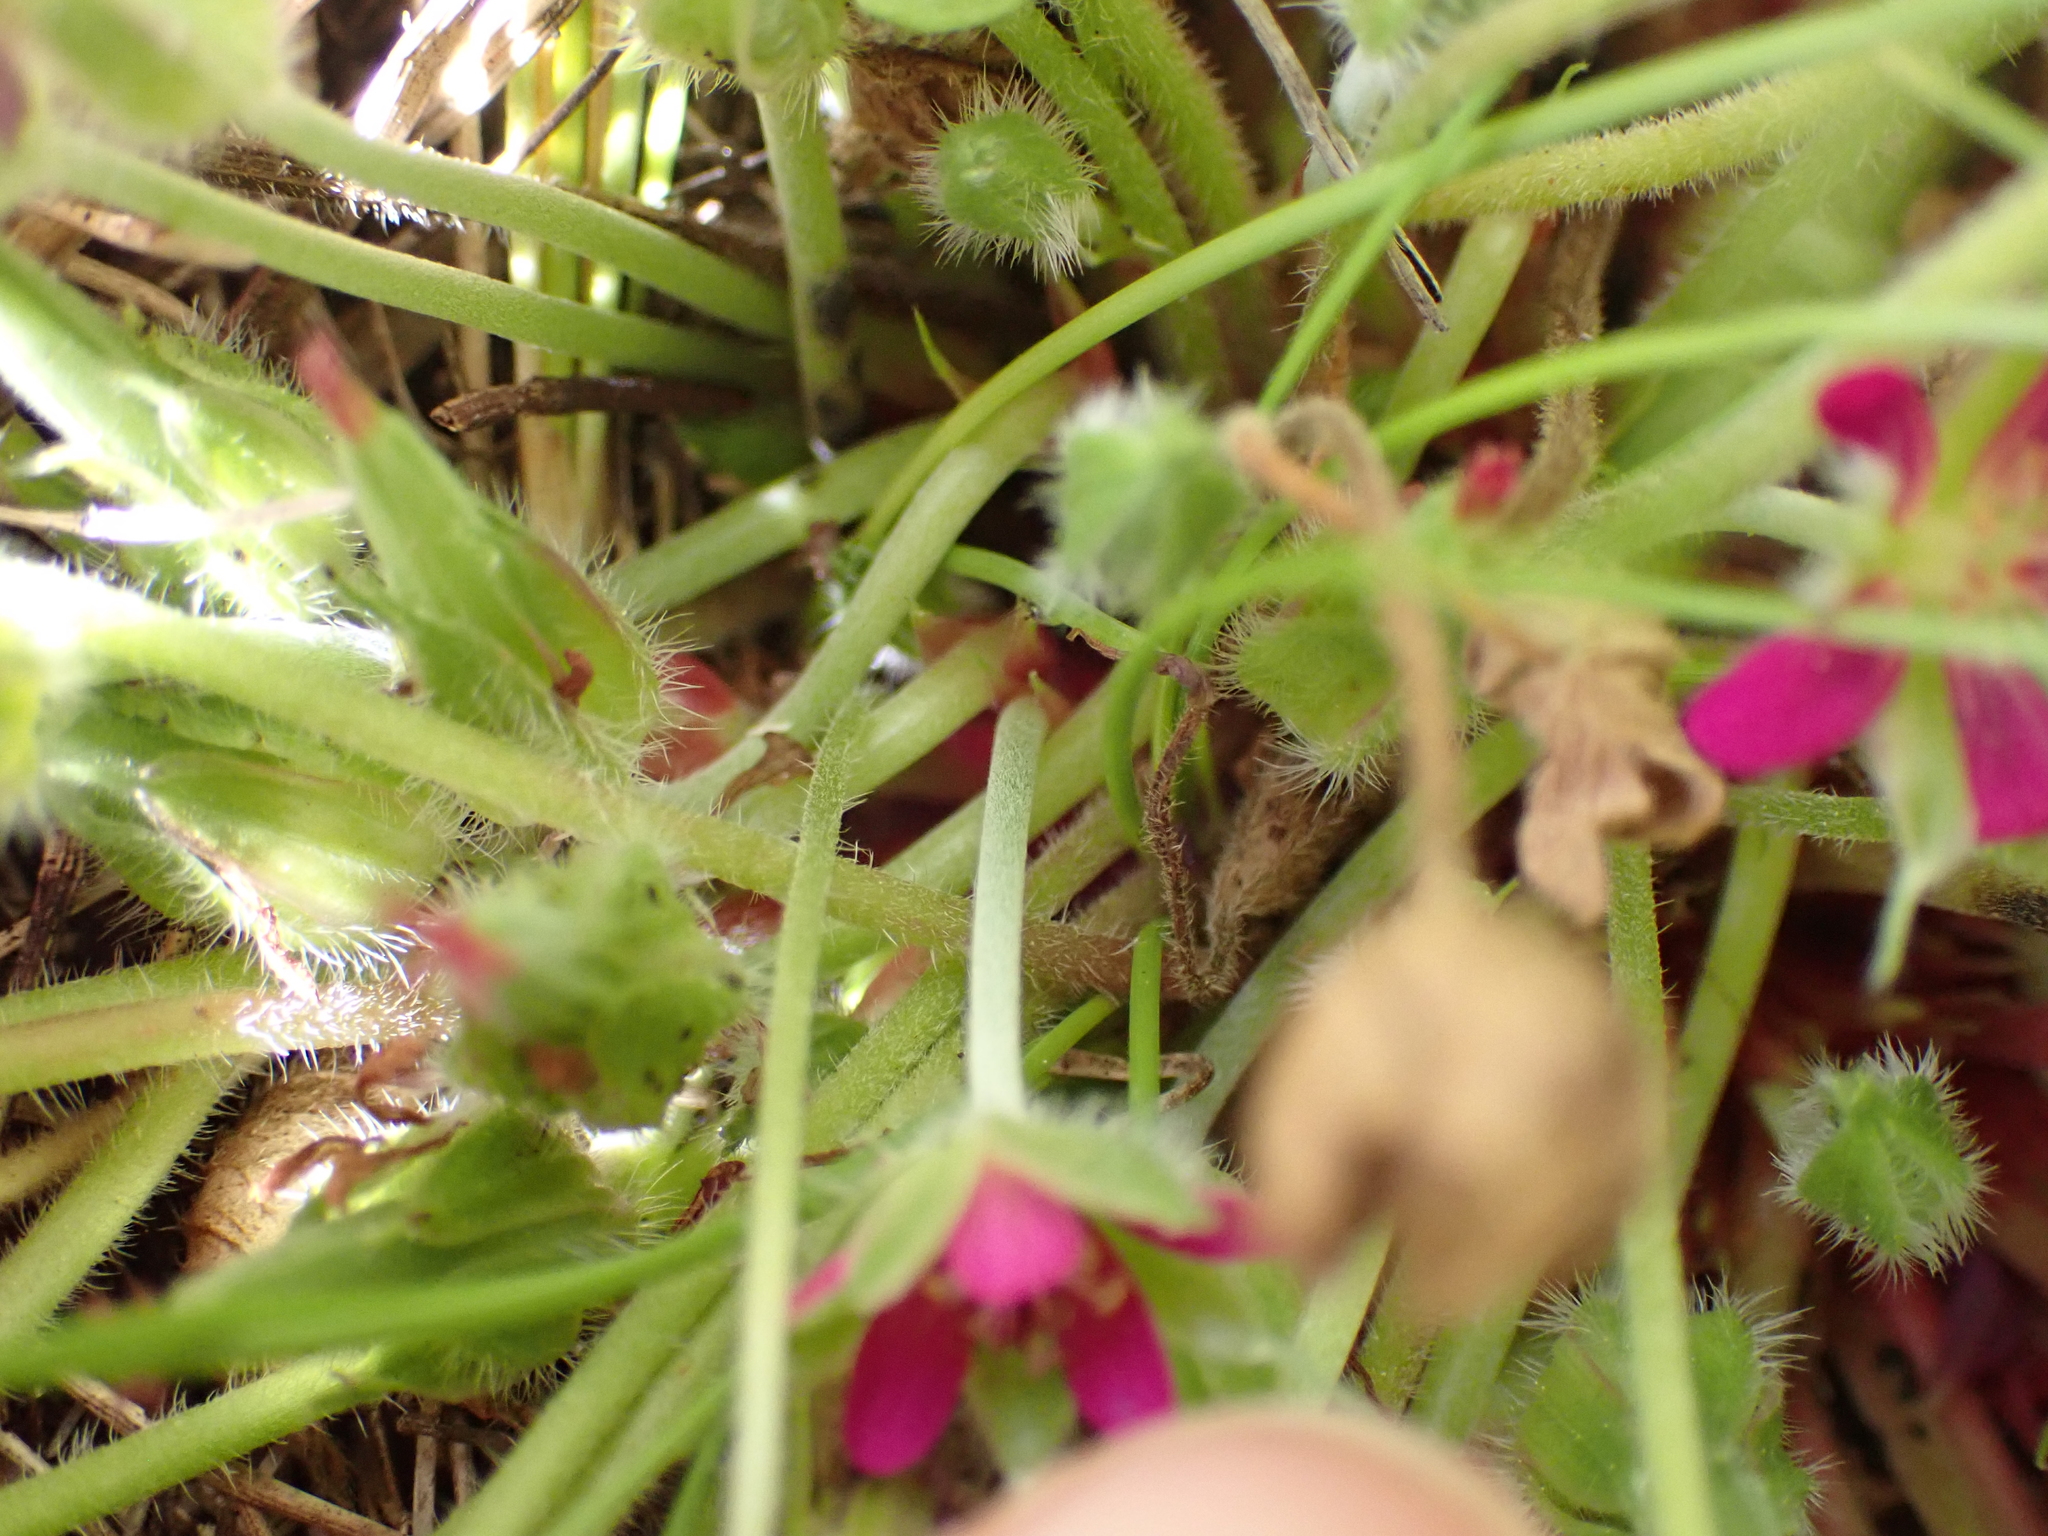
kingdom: Plantae
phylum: Tracheophyta
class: Magnoliopsida
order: Geraniales
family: Geraniaceae
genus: Geranium
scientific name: Geranium brevicaule
